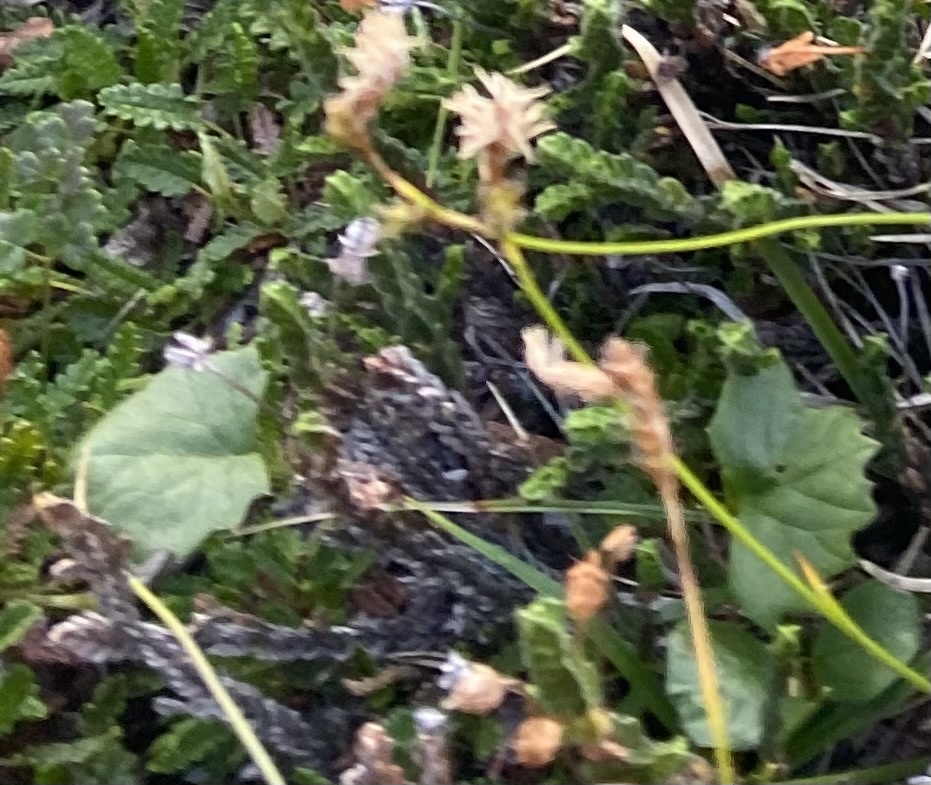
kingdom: Plantae
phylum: Tracheophyta
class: Magnoliopsida
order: Asterales
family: Asteraceae
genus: Endocellion
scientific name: Endocellion glaciale
